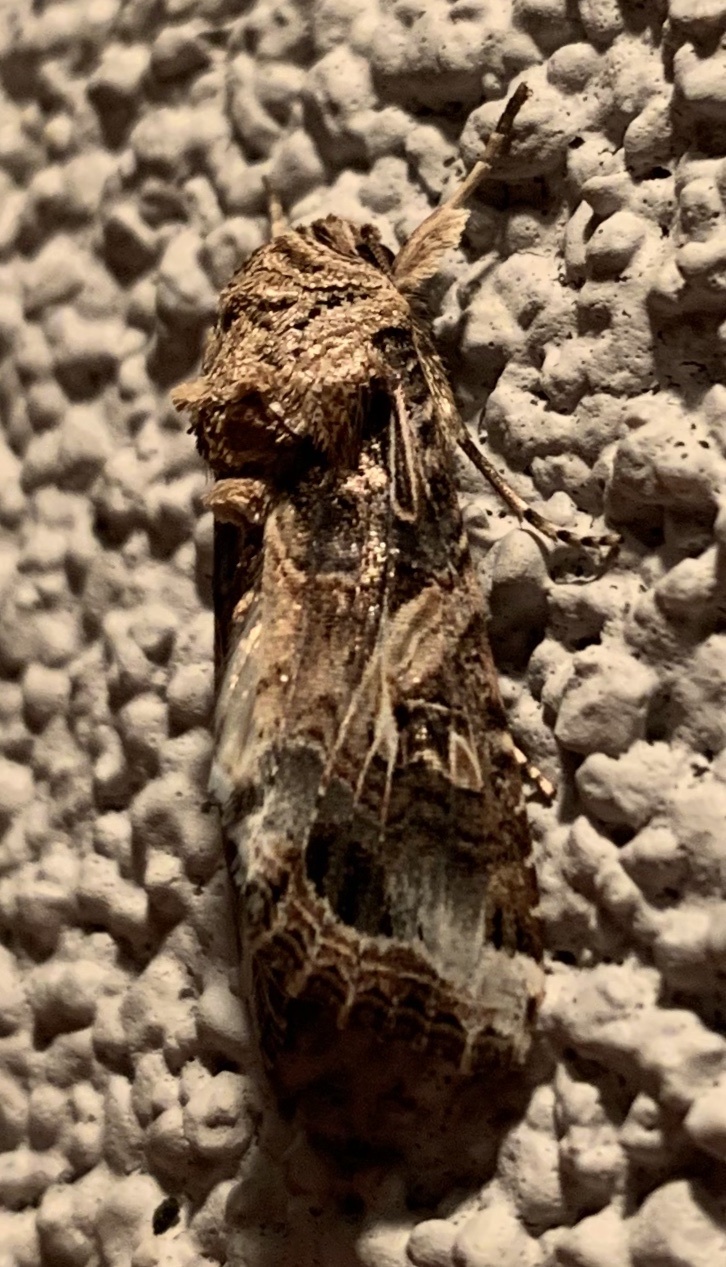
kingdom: Animalia
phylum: Arthropoda
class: Insecta
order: Lepidoptera
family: Noctuidae
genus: Spodoptera
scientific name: Spodoptera ornithogalli
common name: Yellow-striped armyworm
